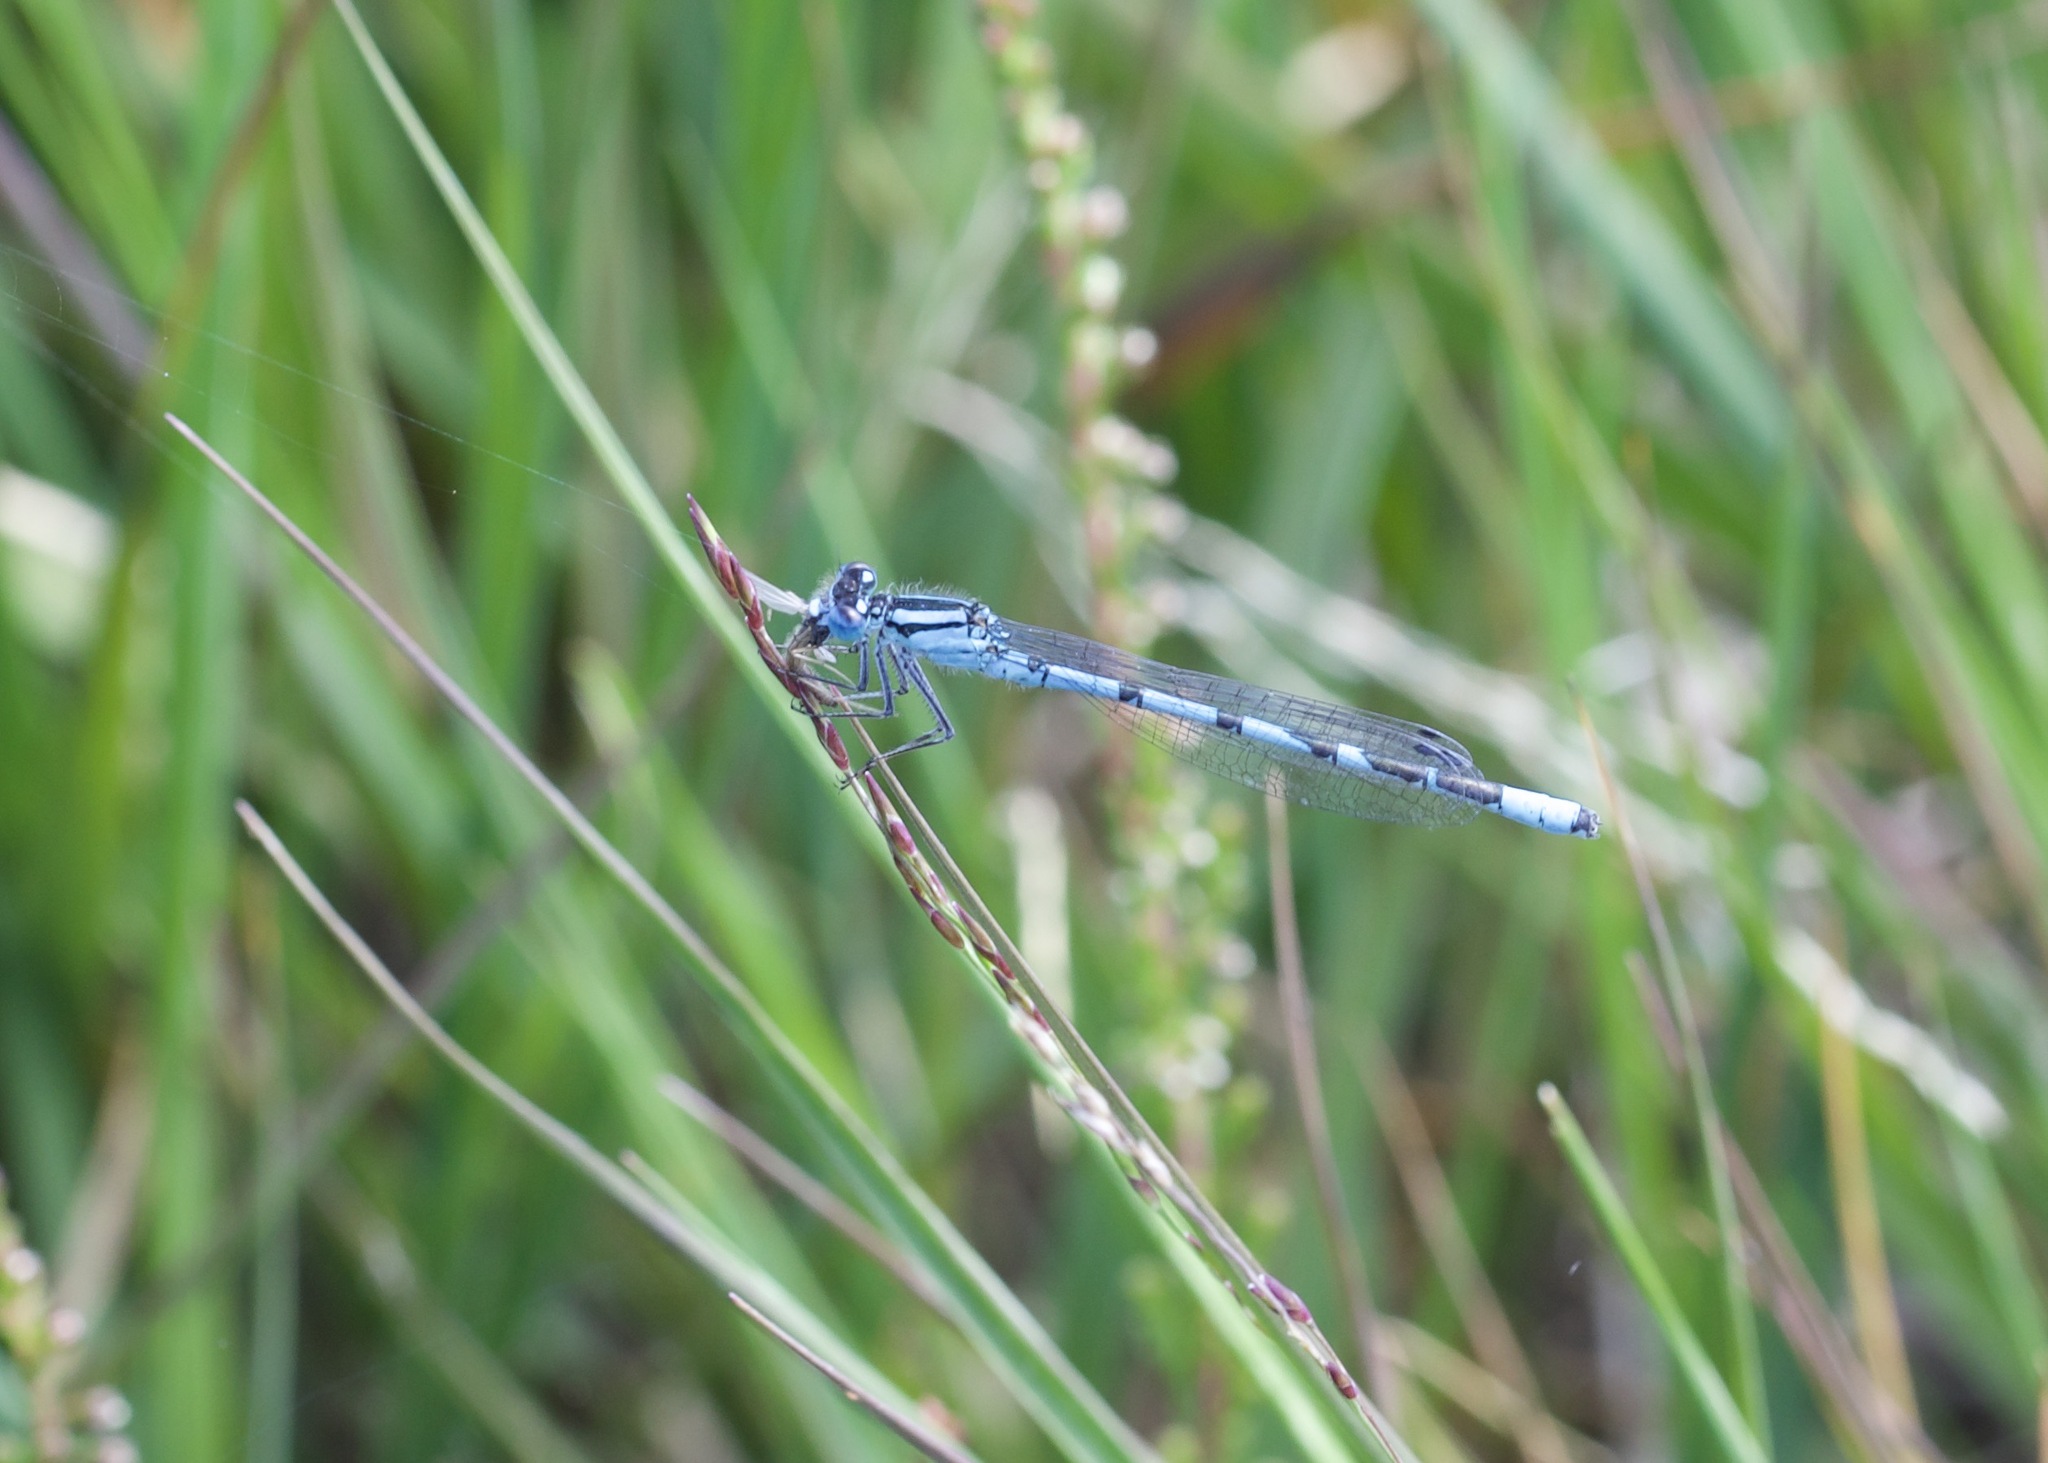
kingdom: Animalia
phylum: Arthropoda
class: Insecta
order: Odonata
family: Coenagrionidae
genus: Enallagma
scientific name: Enallagma cyathigerum
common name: Common blue damselfly
